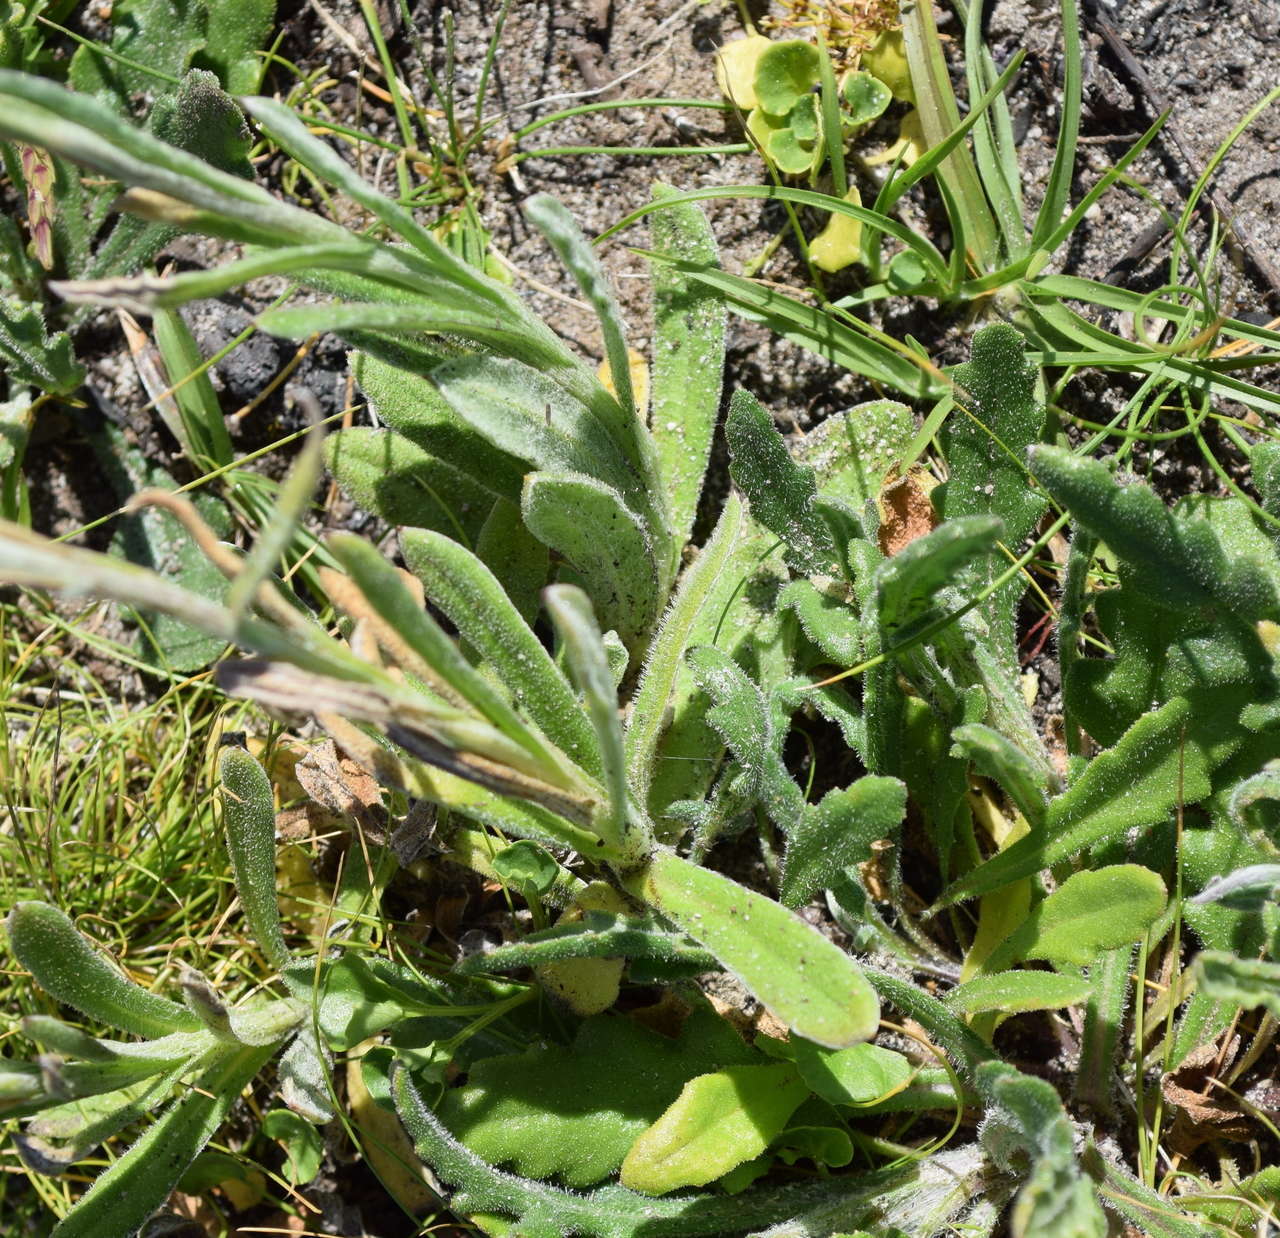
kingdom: Plantae
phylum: Tracheophyta
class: Magnoliopsida
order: Asterales
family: Asteraceae
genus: Coronidium
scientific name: Coronidium scorpioides
